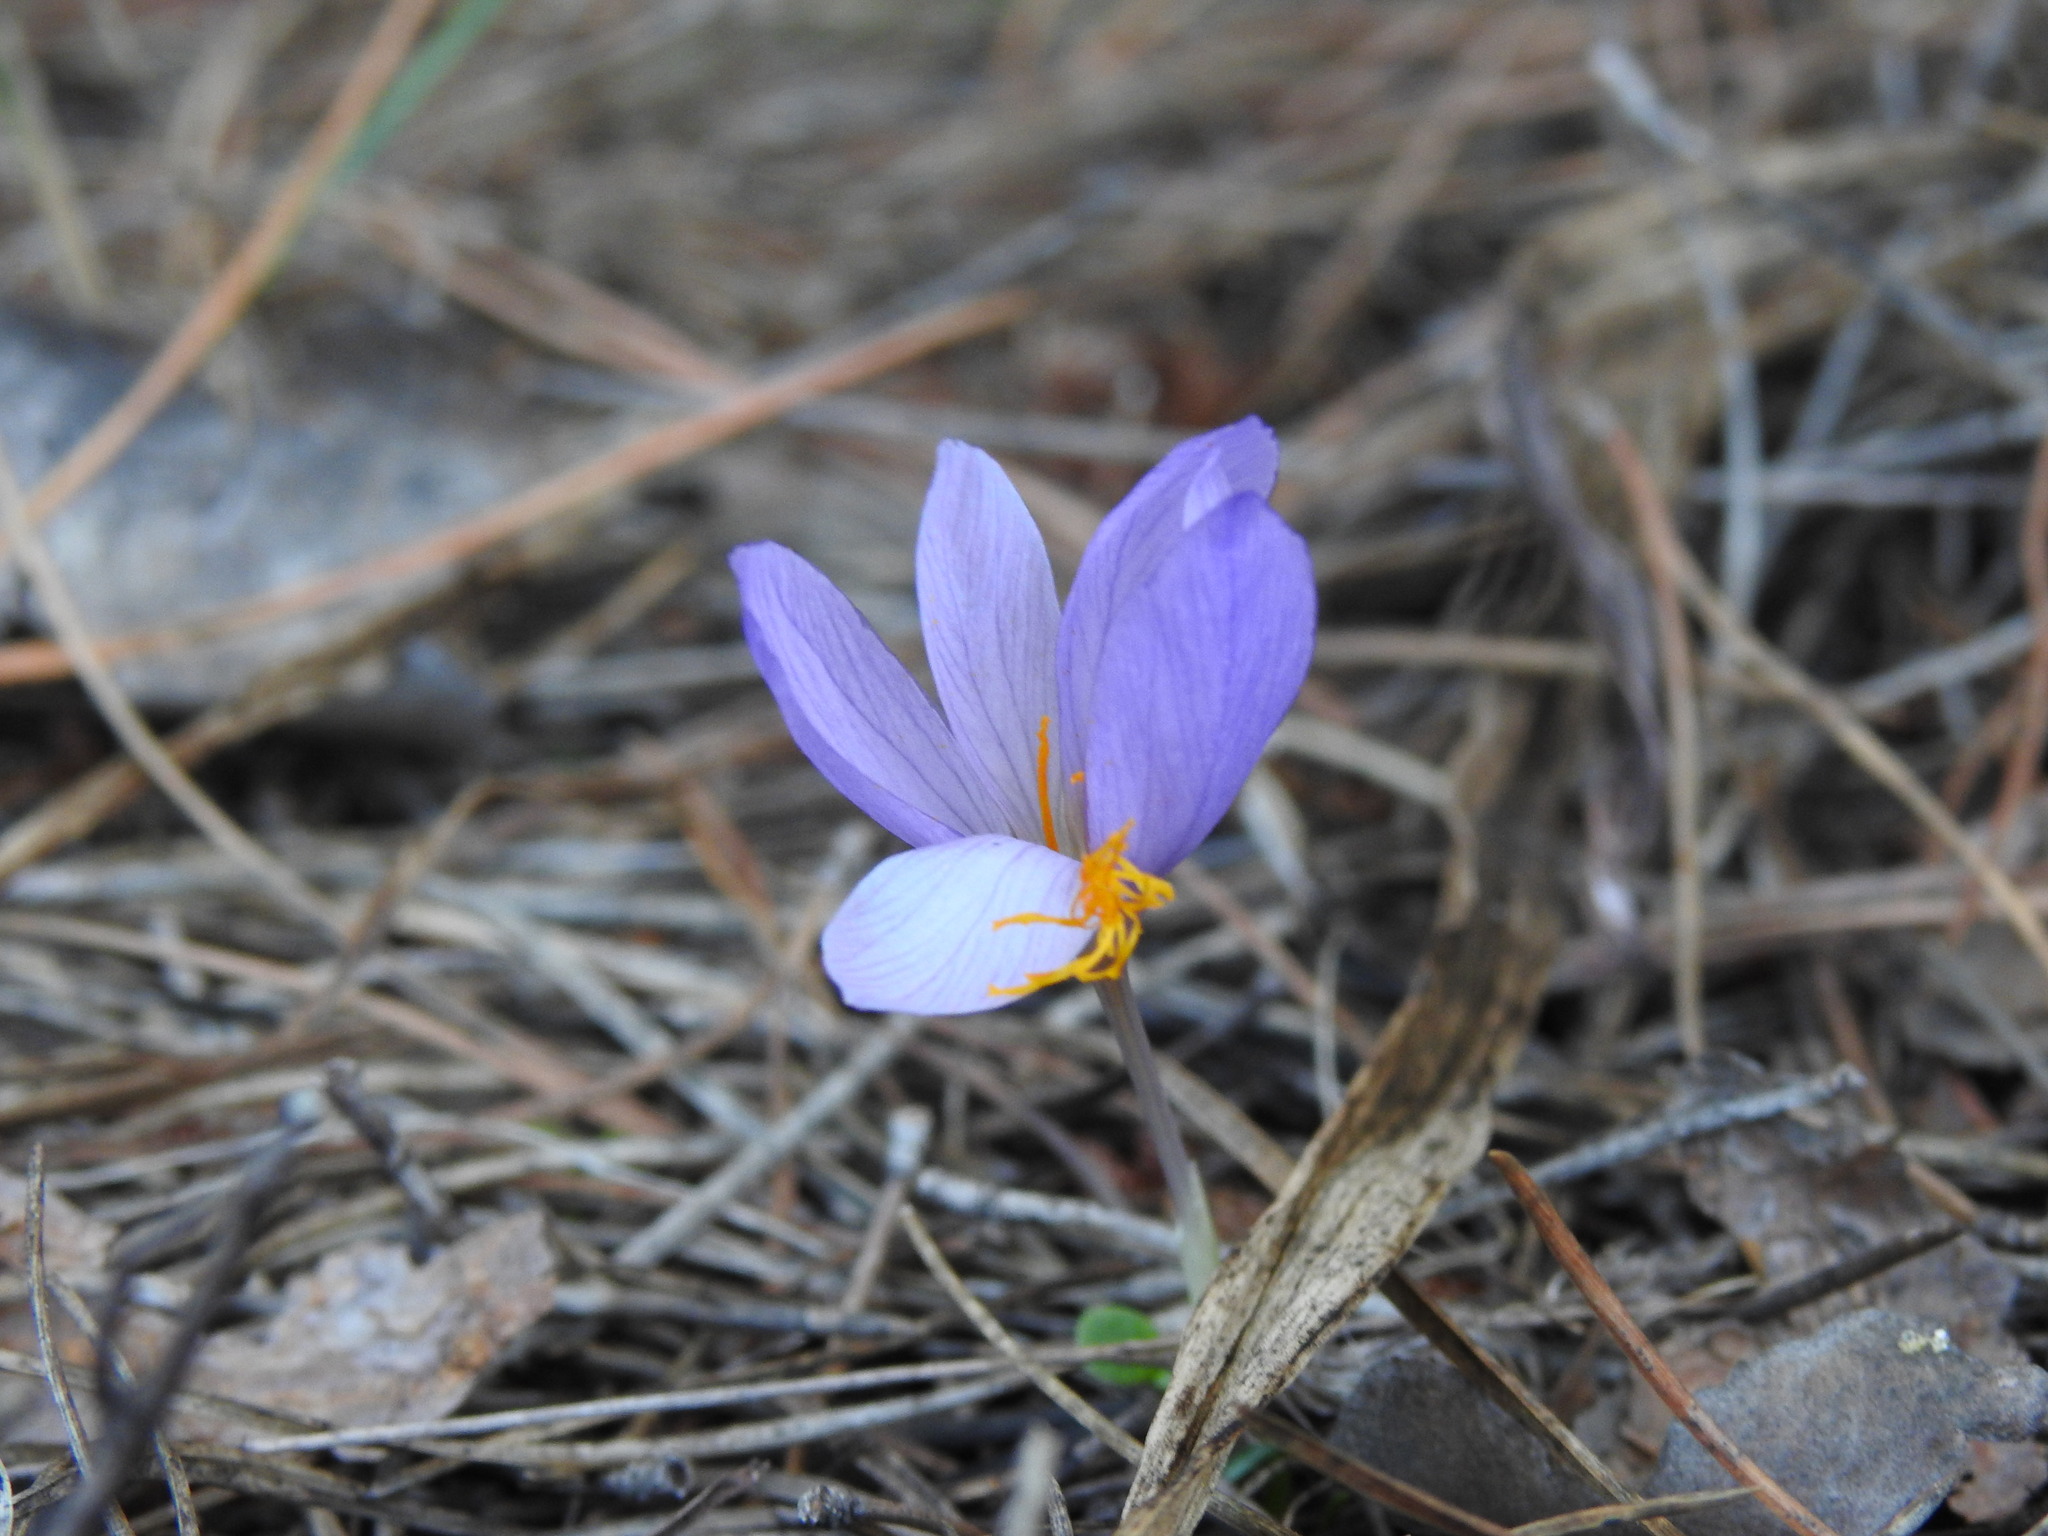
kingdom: Plantae
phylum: Tracheophyta
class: Liliopsida
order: Asparagales
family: Iridaceae
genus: Crocus
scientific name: Crocus serotinus
